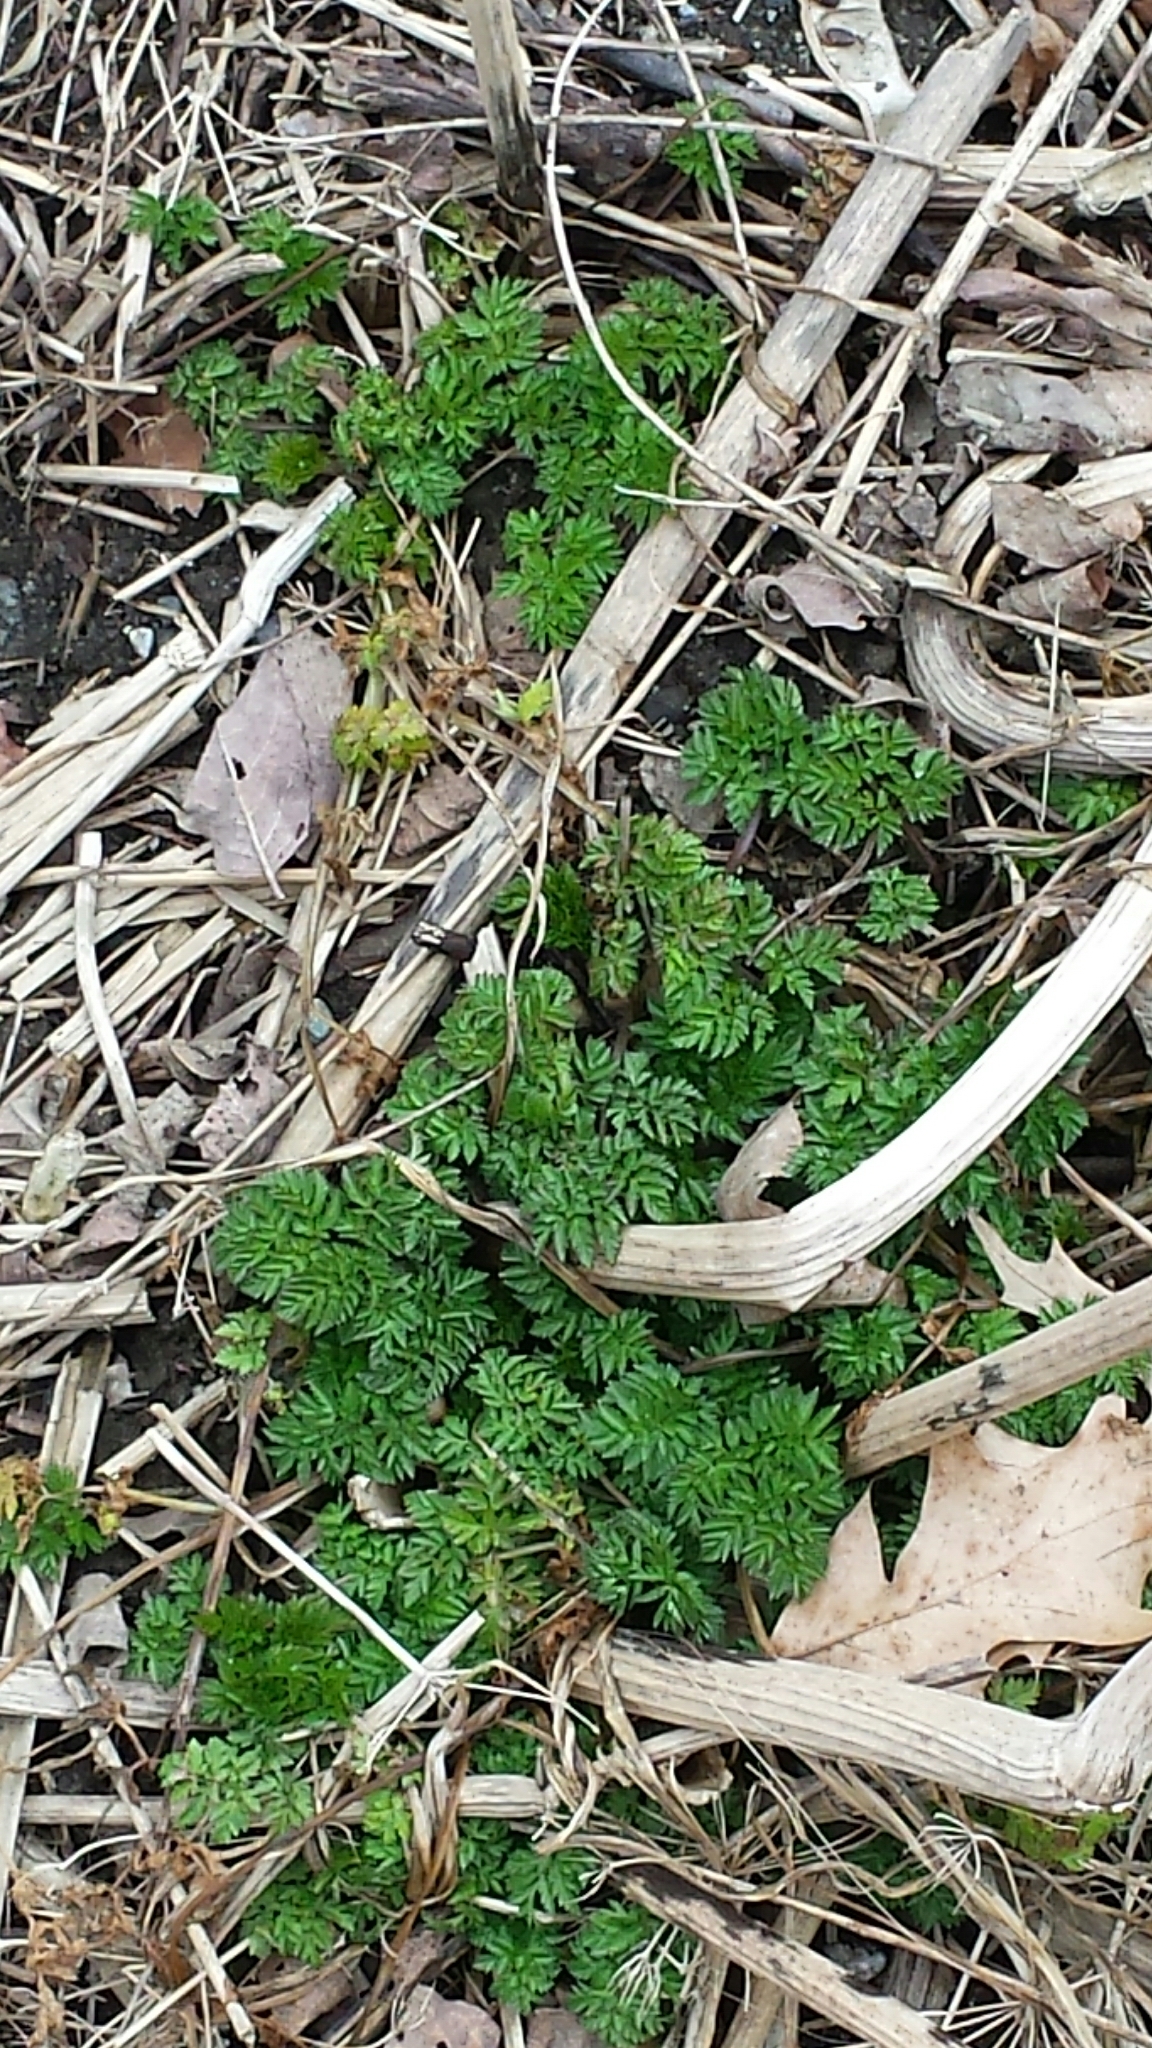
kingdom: Plantae
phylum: Tracheophyta
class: Magnoliopsida
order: Apiales
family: Apiaceae
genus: Anthriscus
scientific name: Anthriscus sylvestris
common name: Cow parsley
